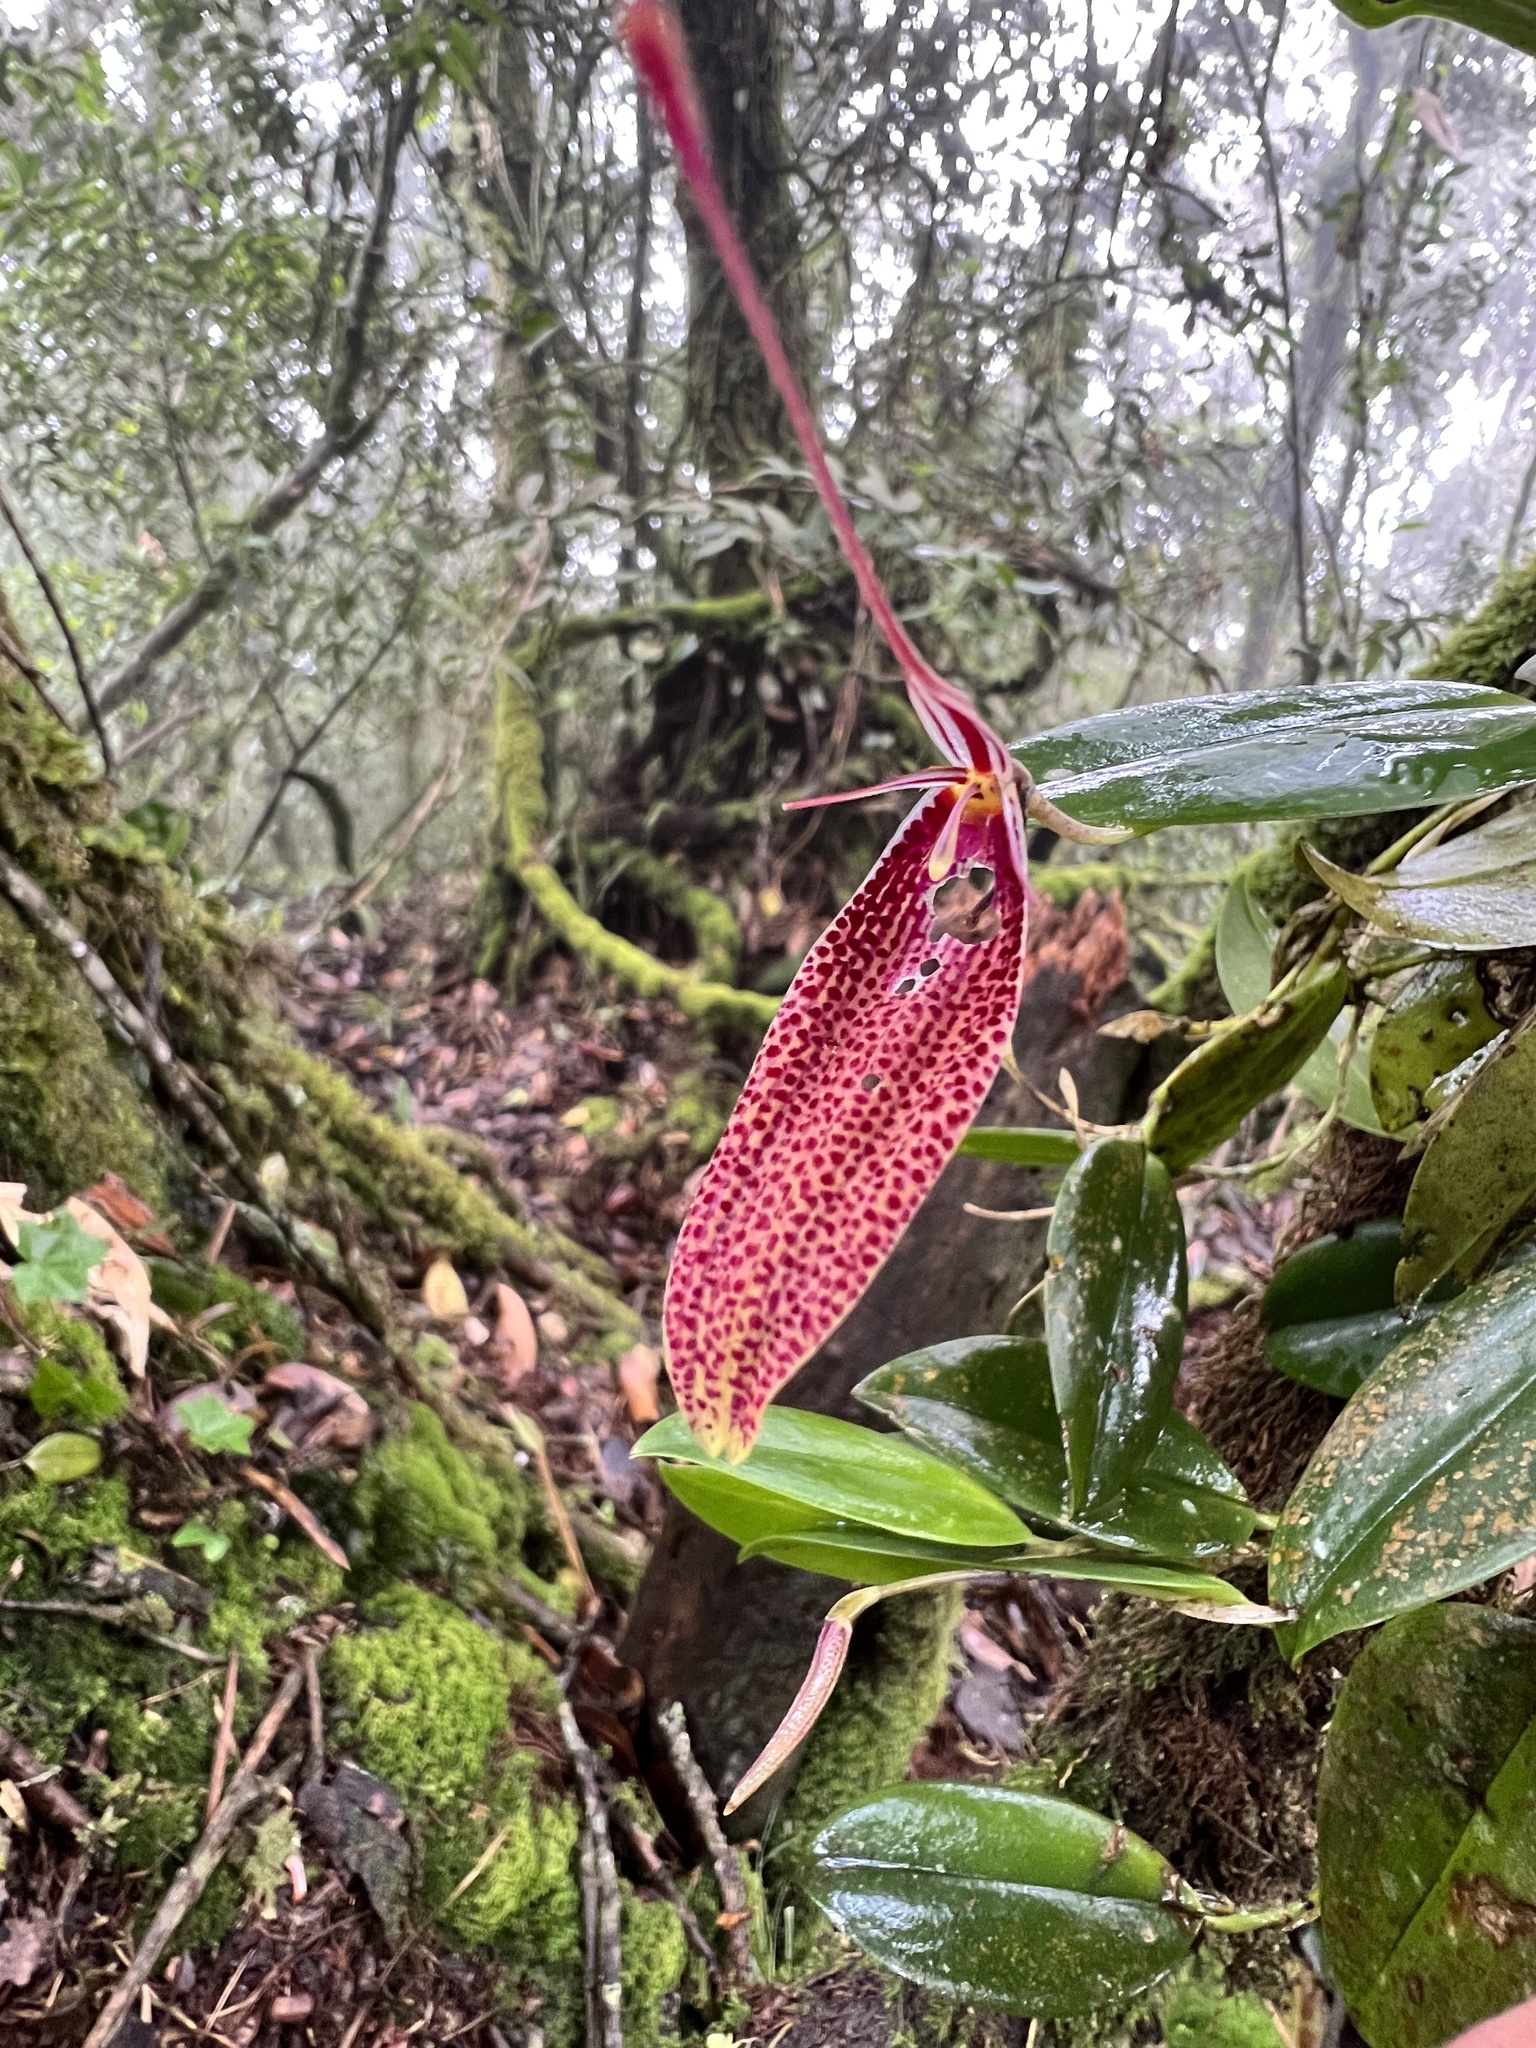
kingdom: Plantae
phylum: Tracheophyta
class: Liliopsida
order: Asparagales
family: Orchidaceae
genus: Restrepia
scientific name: Restrepia guttulata
